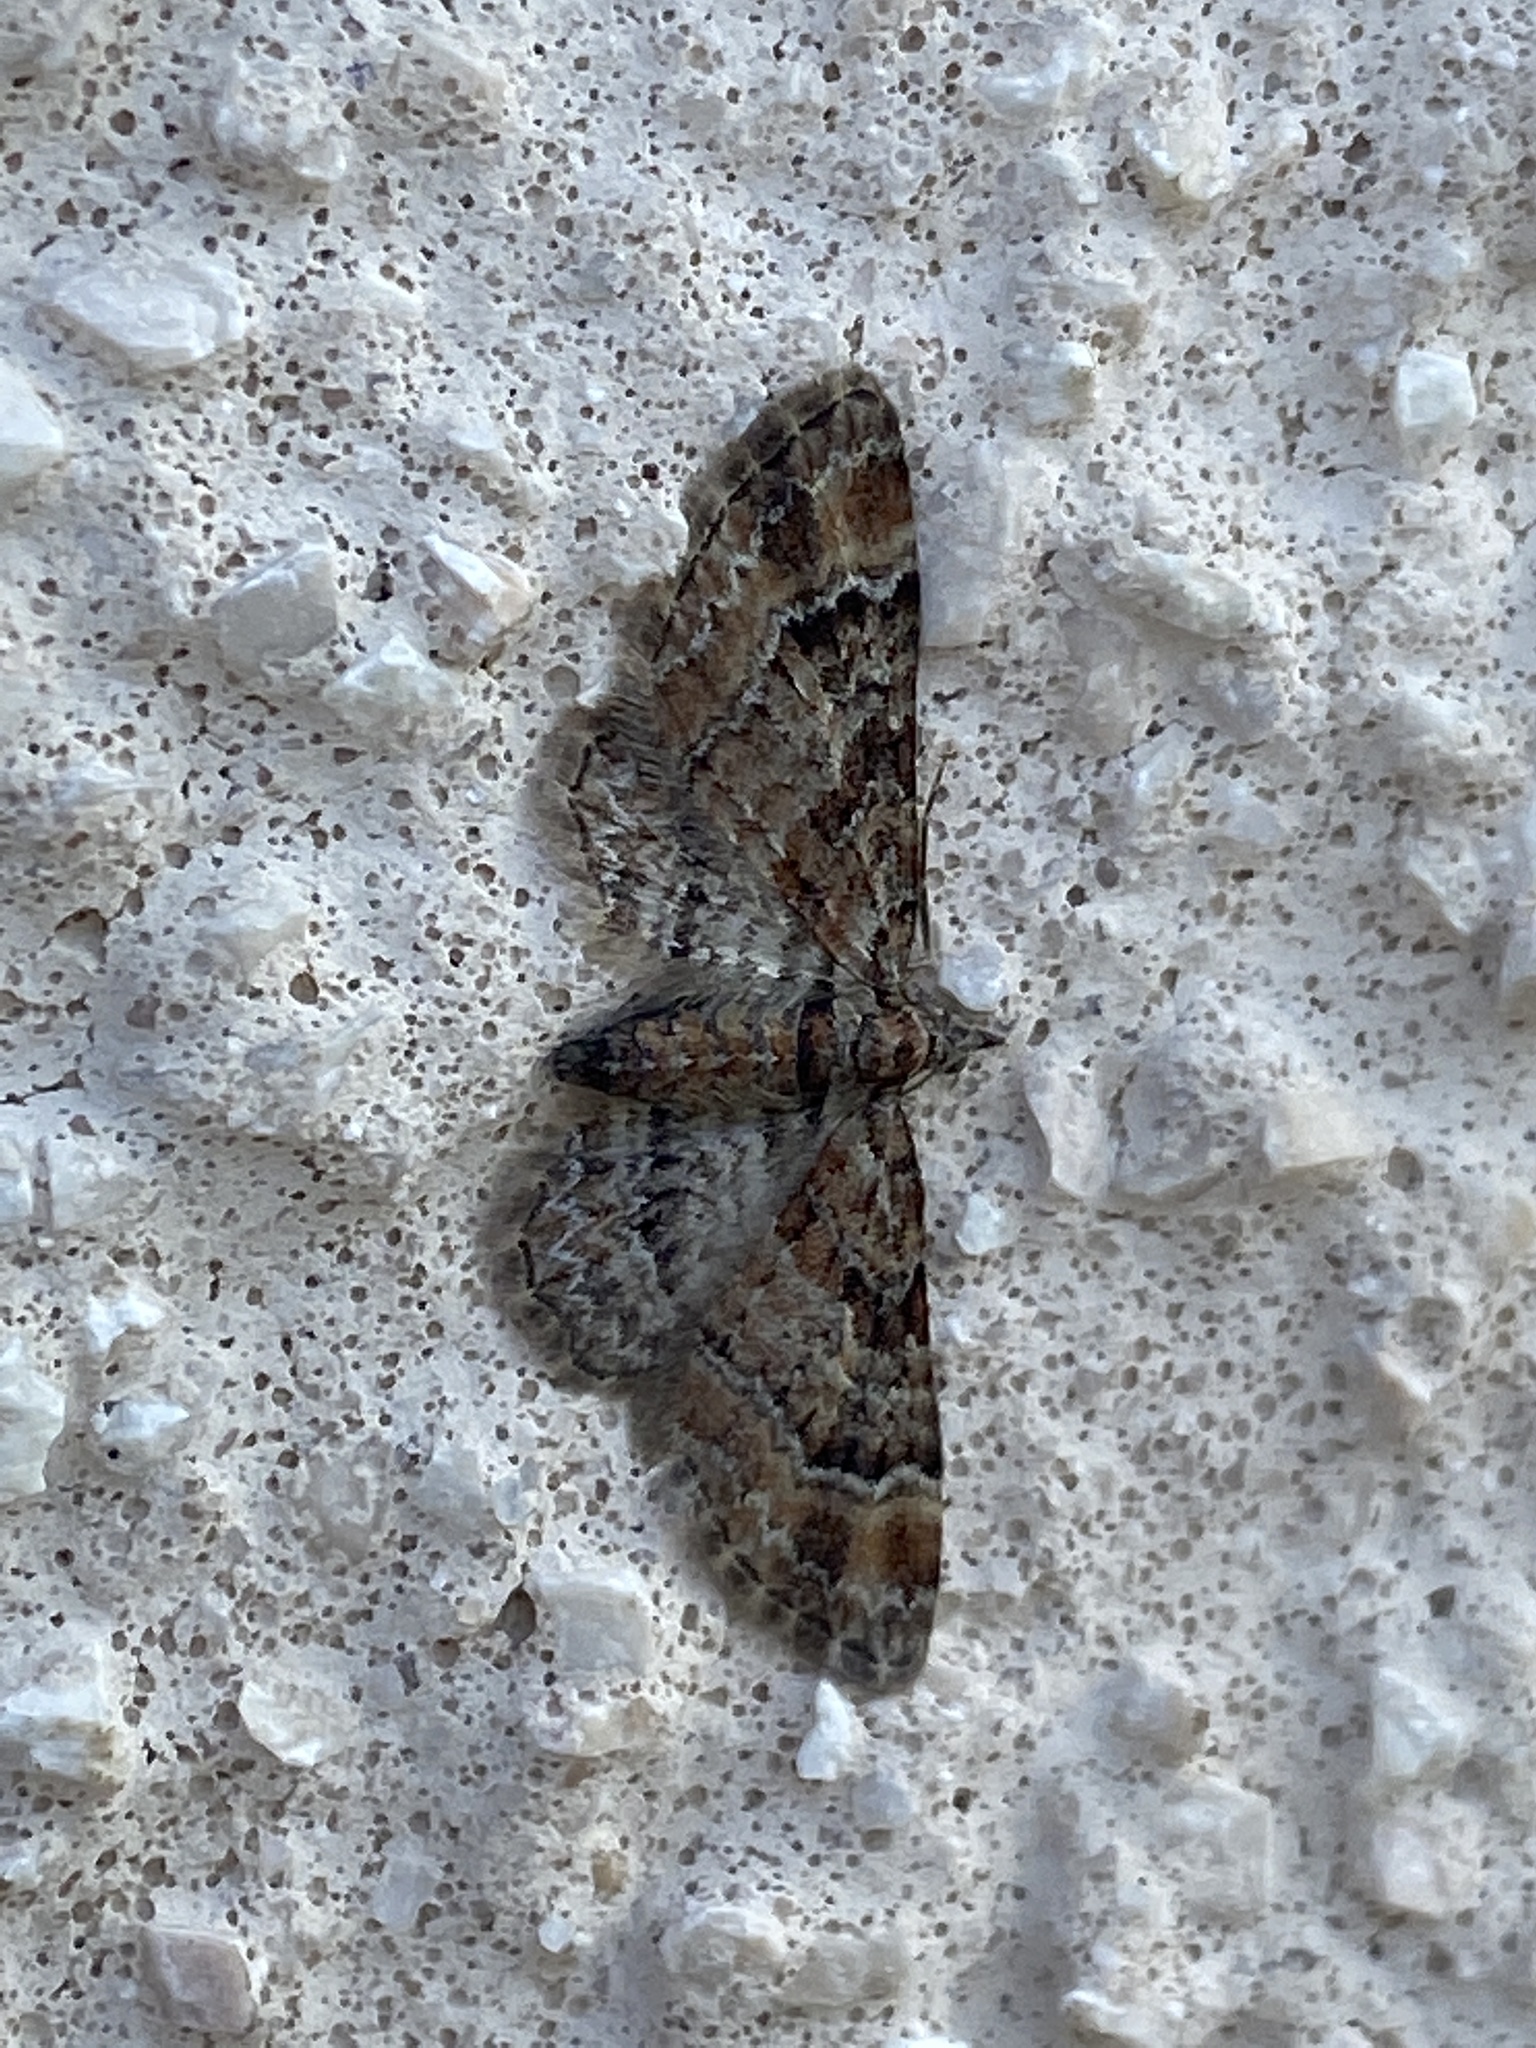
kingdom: Animalia
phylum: Arthropoda
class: Insecta
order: Lepidoptera
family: Geometridae
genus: Gymnoscelis
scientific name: Gymnoscelis rufifasciata
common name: Double-striped pug
